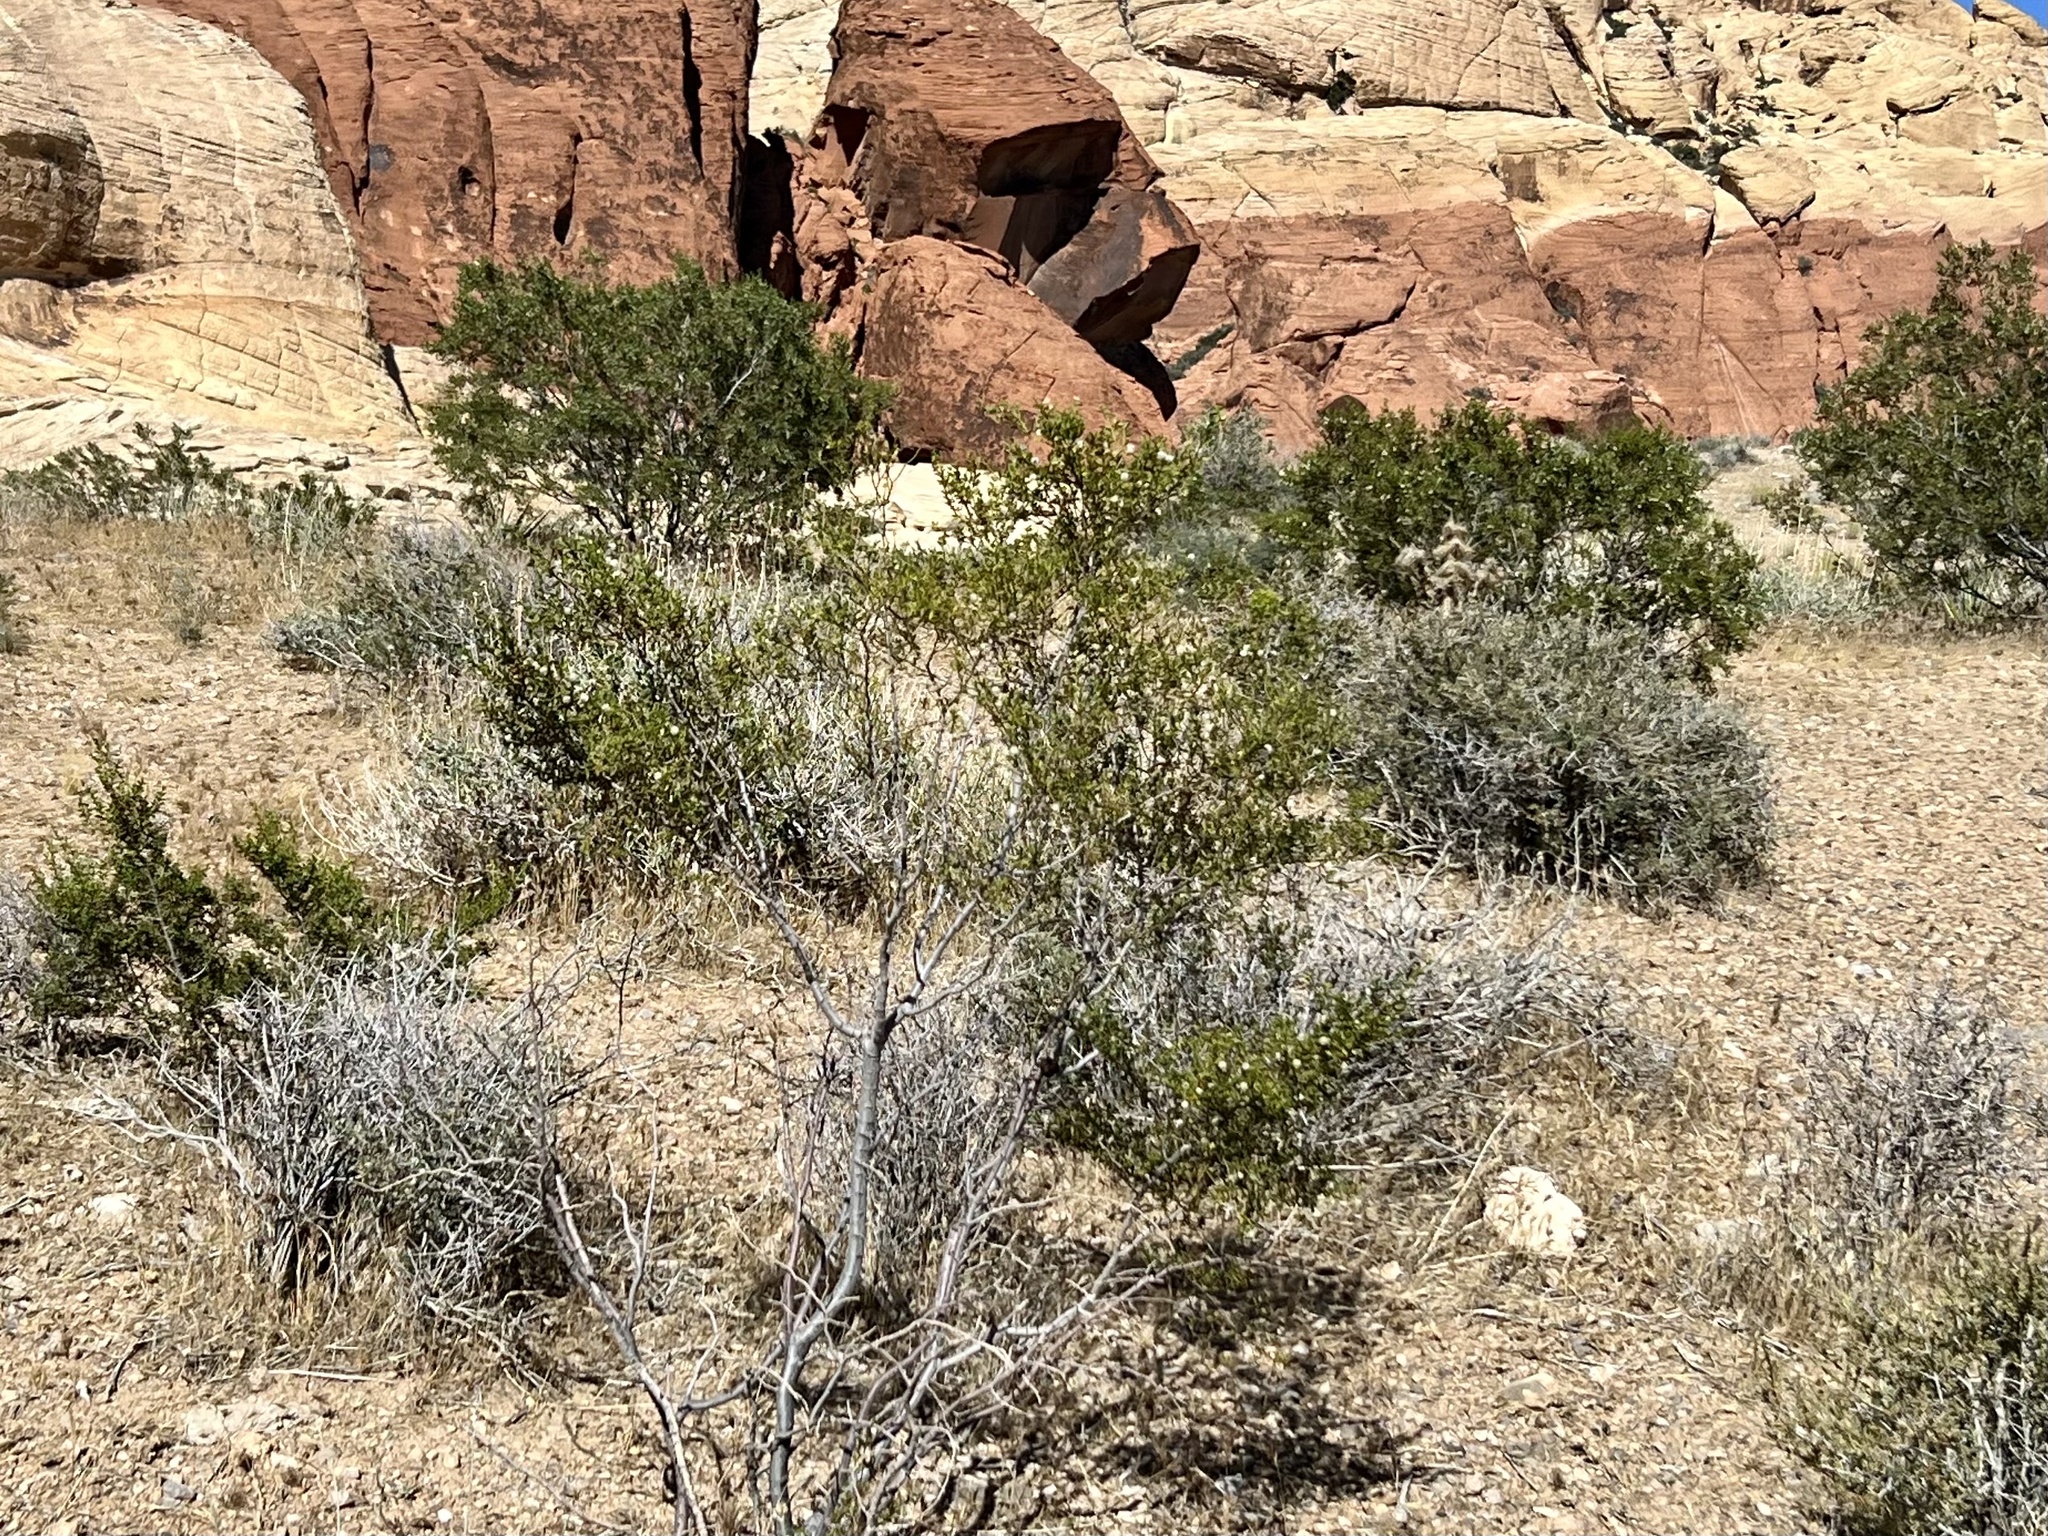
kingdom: Plantae
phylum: Tracheophyta
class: Magnoliopsida
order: Zygophyllales
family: Zygophyllaceae
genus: Larrea
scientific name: Larrea tridentata
